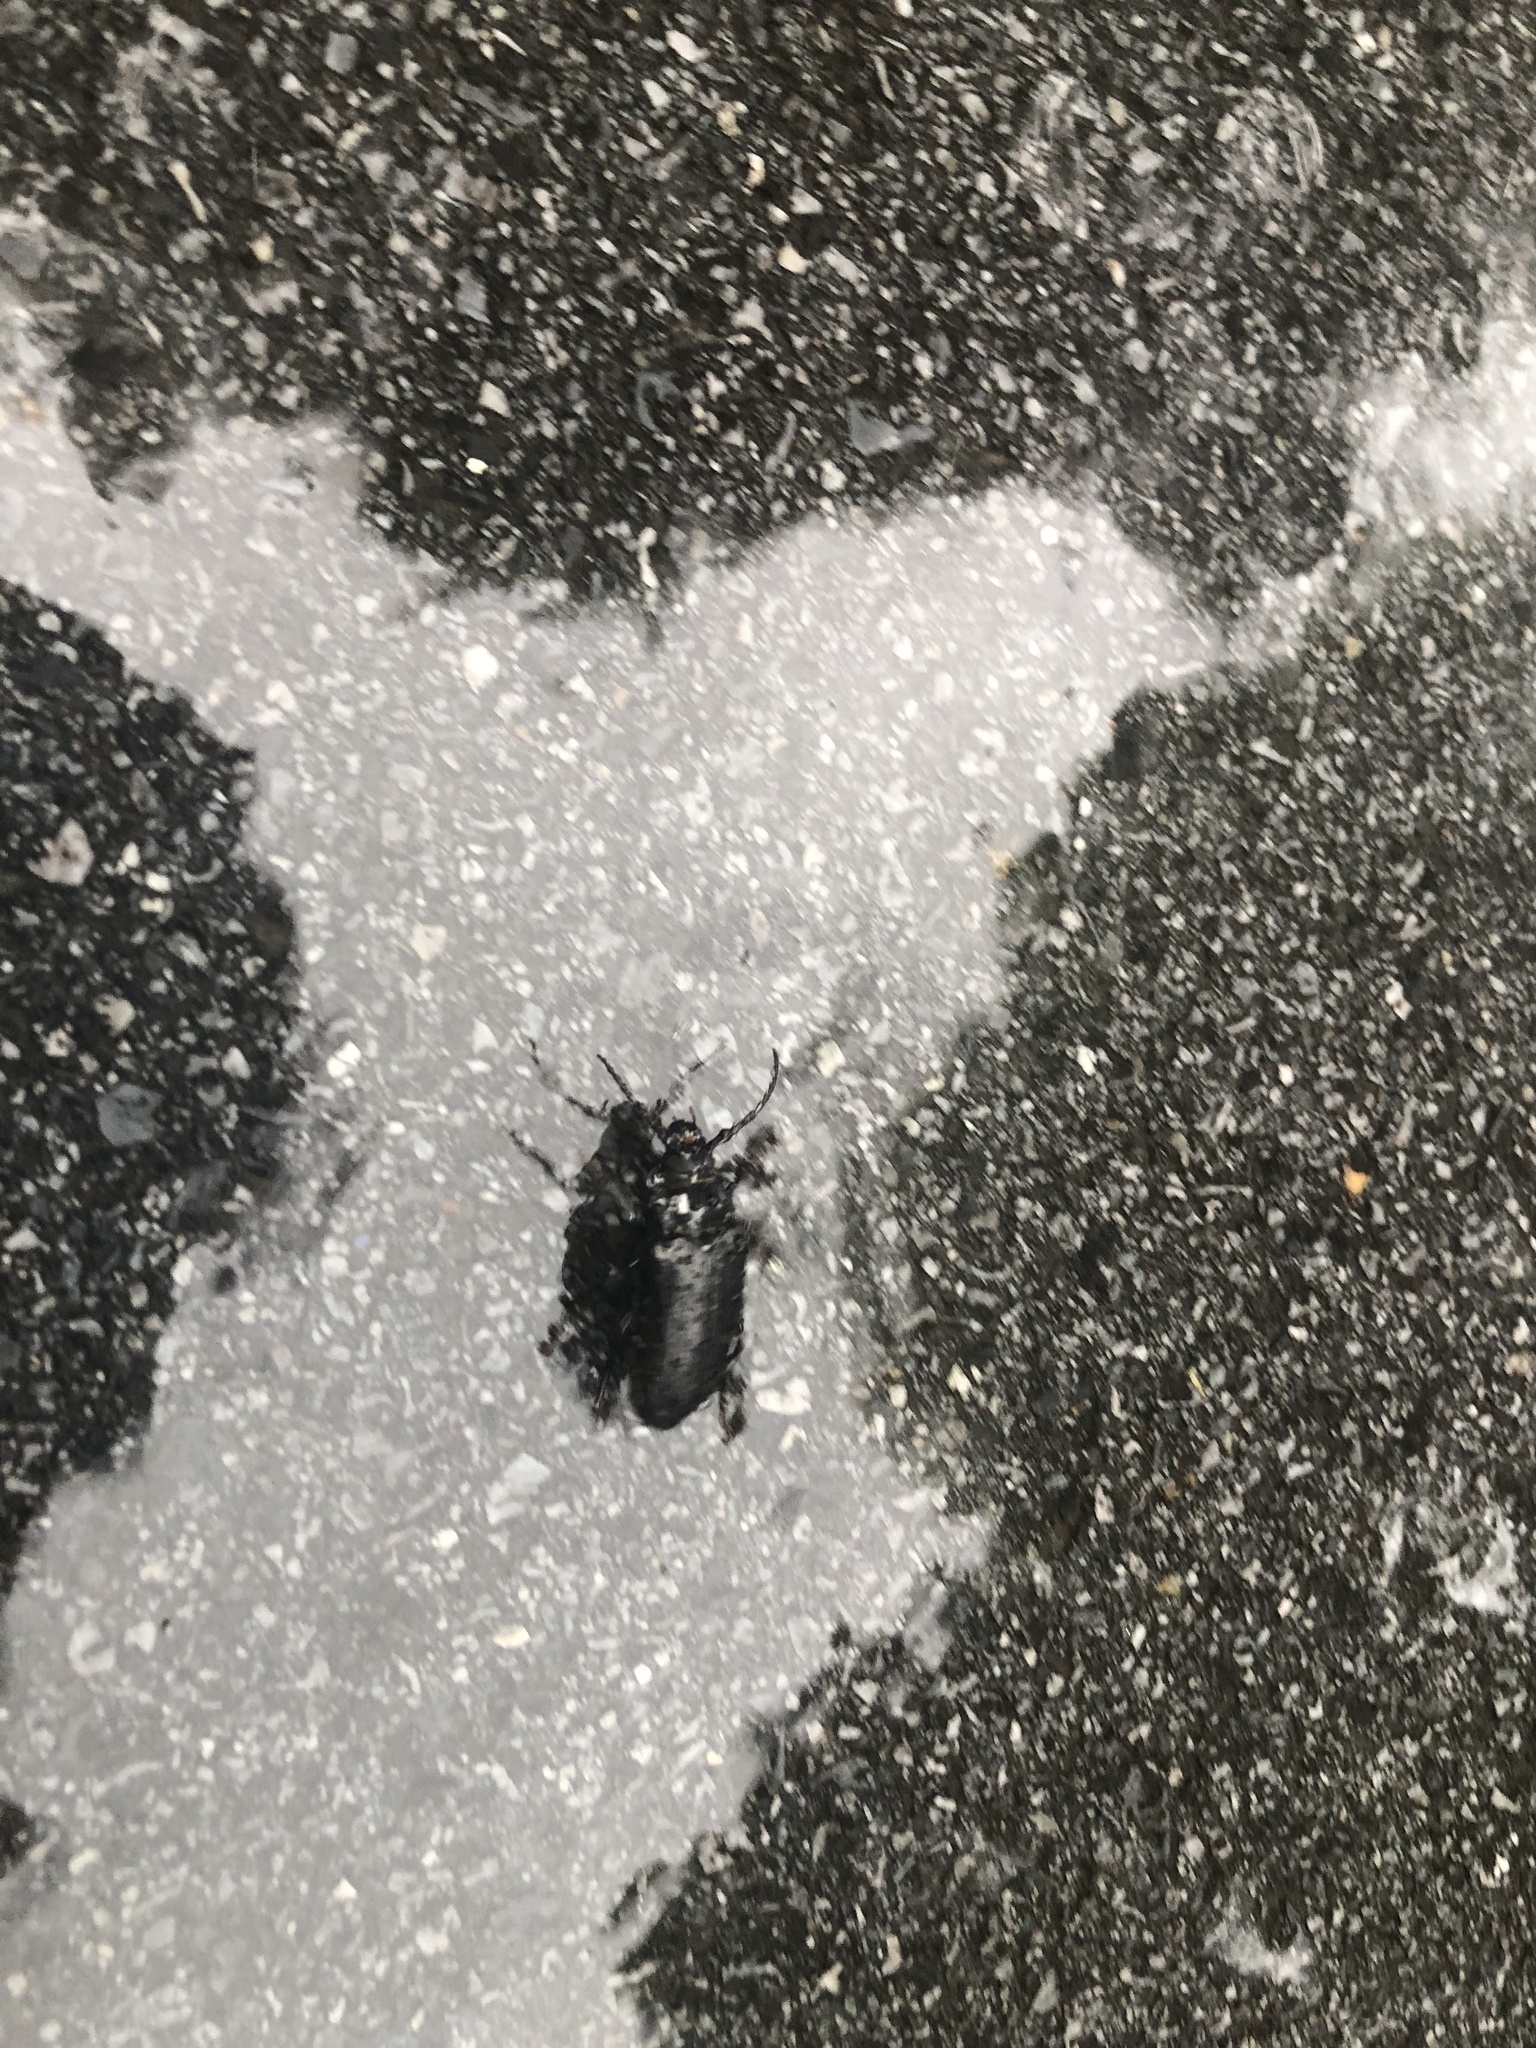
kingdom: Animalia
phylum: Arthropoda
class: Insecta
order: Coleoptera
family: Cerambycidae
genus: Prionus
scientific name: Prionus laticollis
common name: Broad necked prionus
